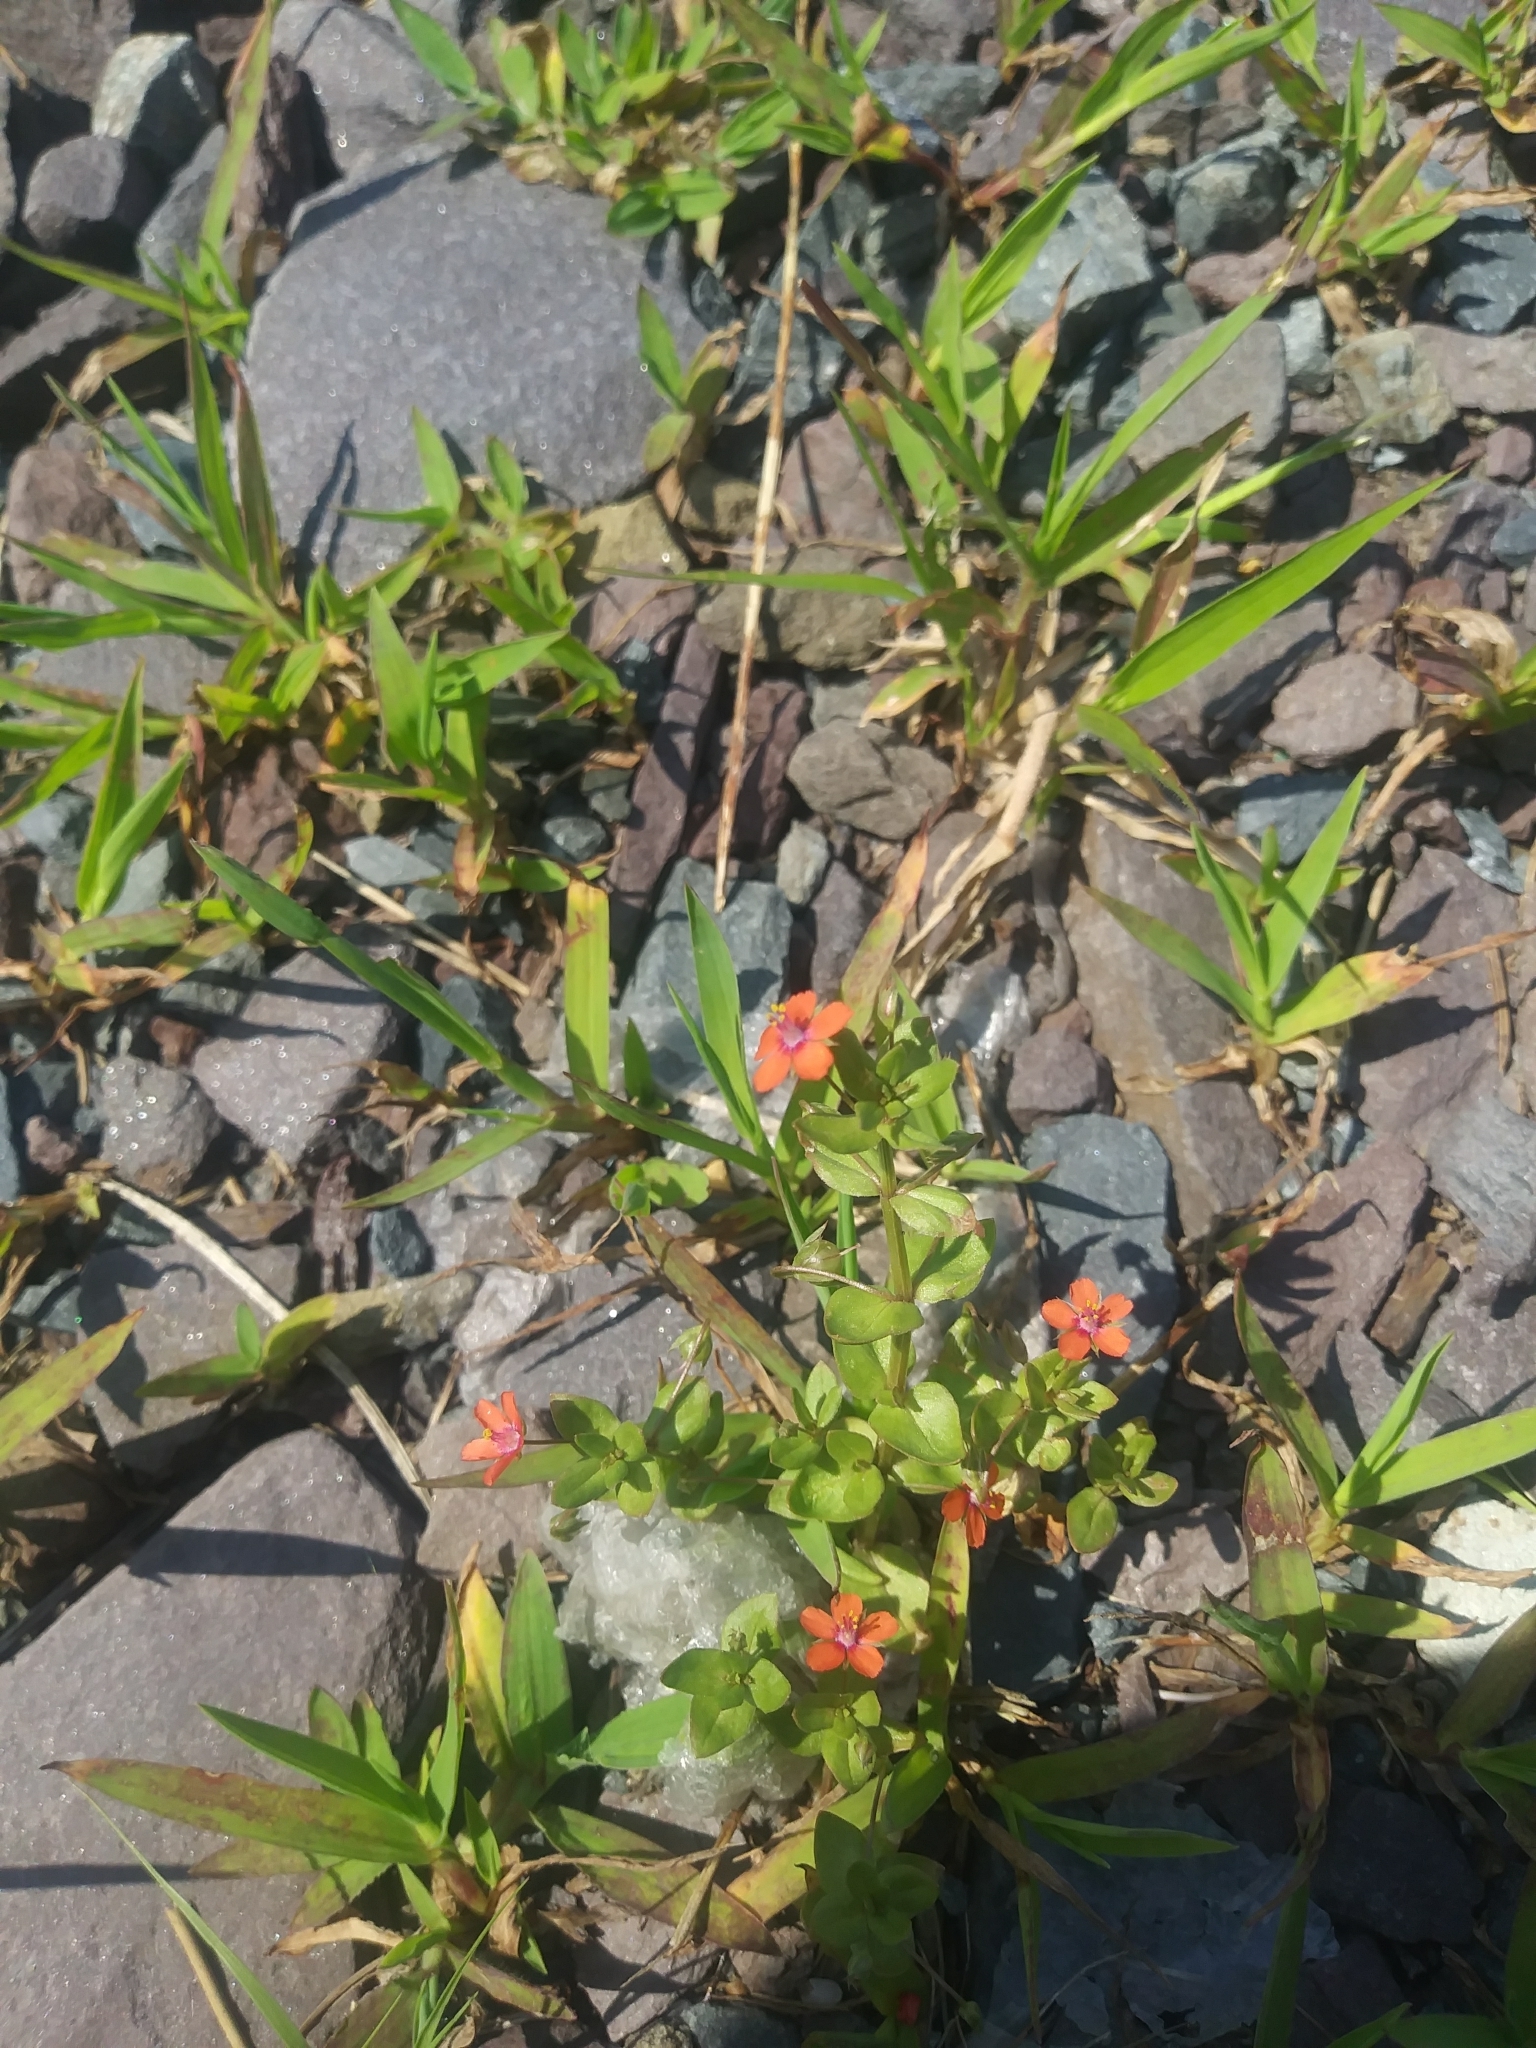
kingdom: Plantae
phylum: Tracheophyta
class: Magnoliopsida
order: Ericales
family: Primulaceae
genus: Lysimachia
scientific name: Lysimachia arvensis
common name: Scarlet pimpernel
